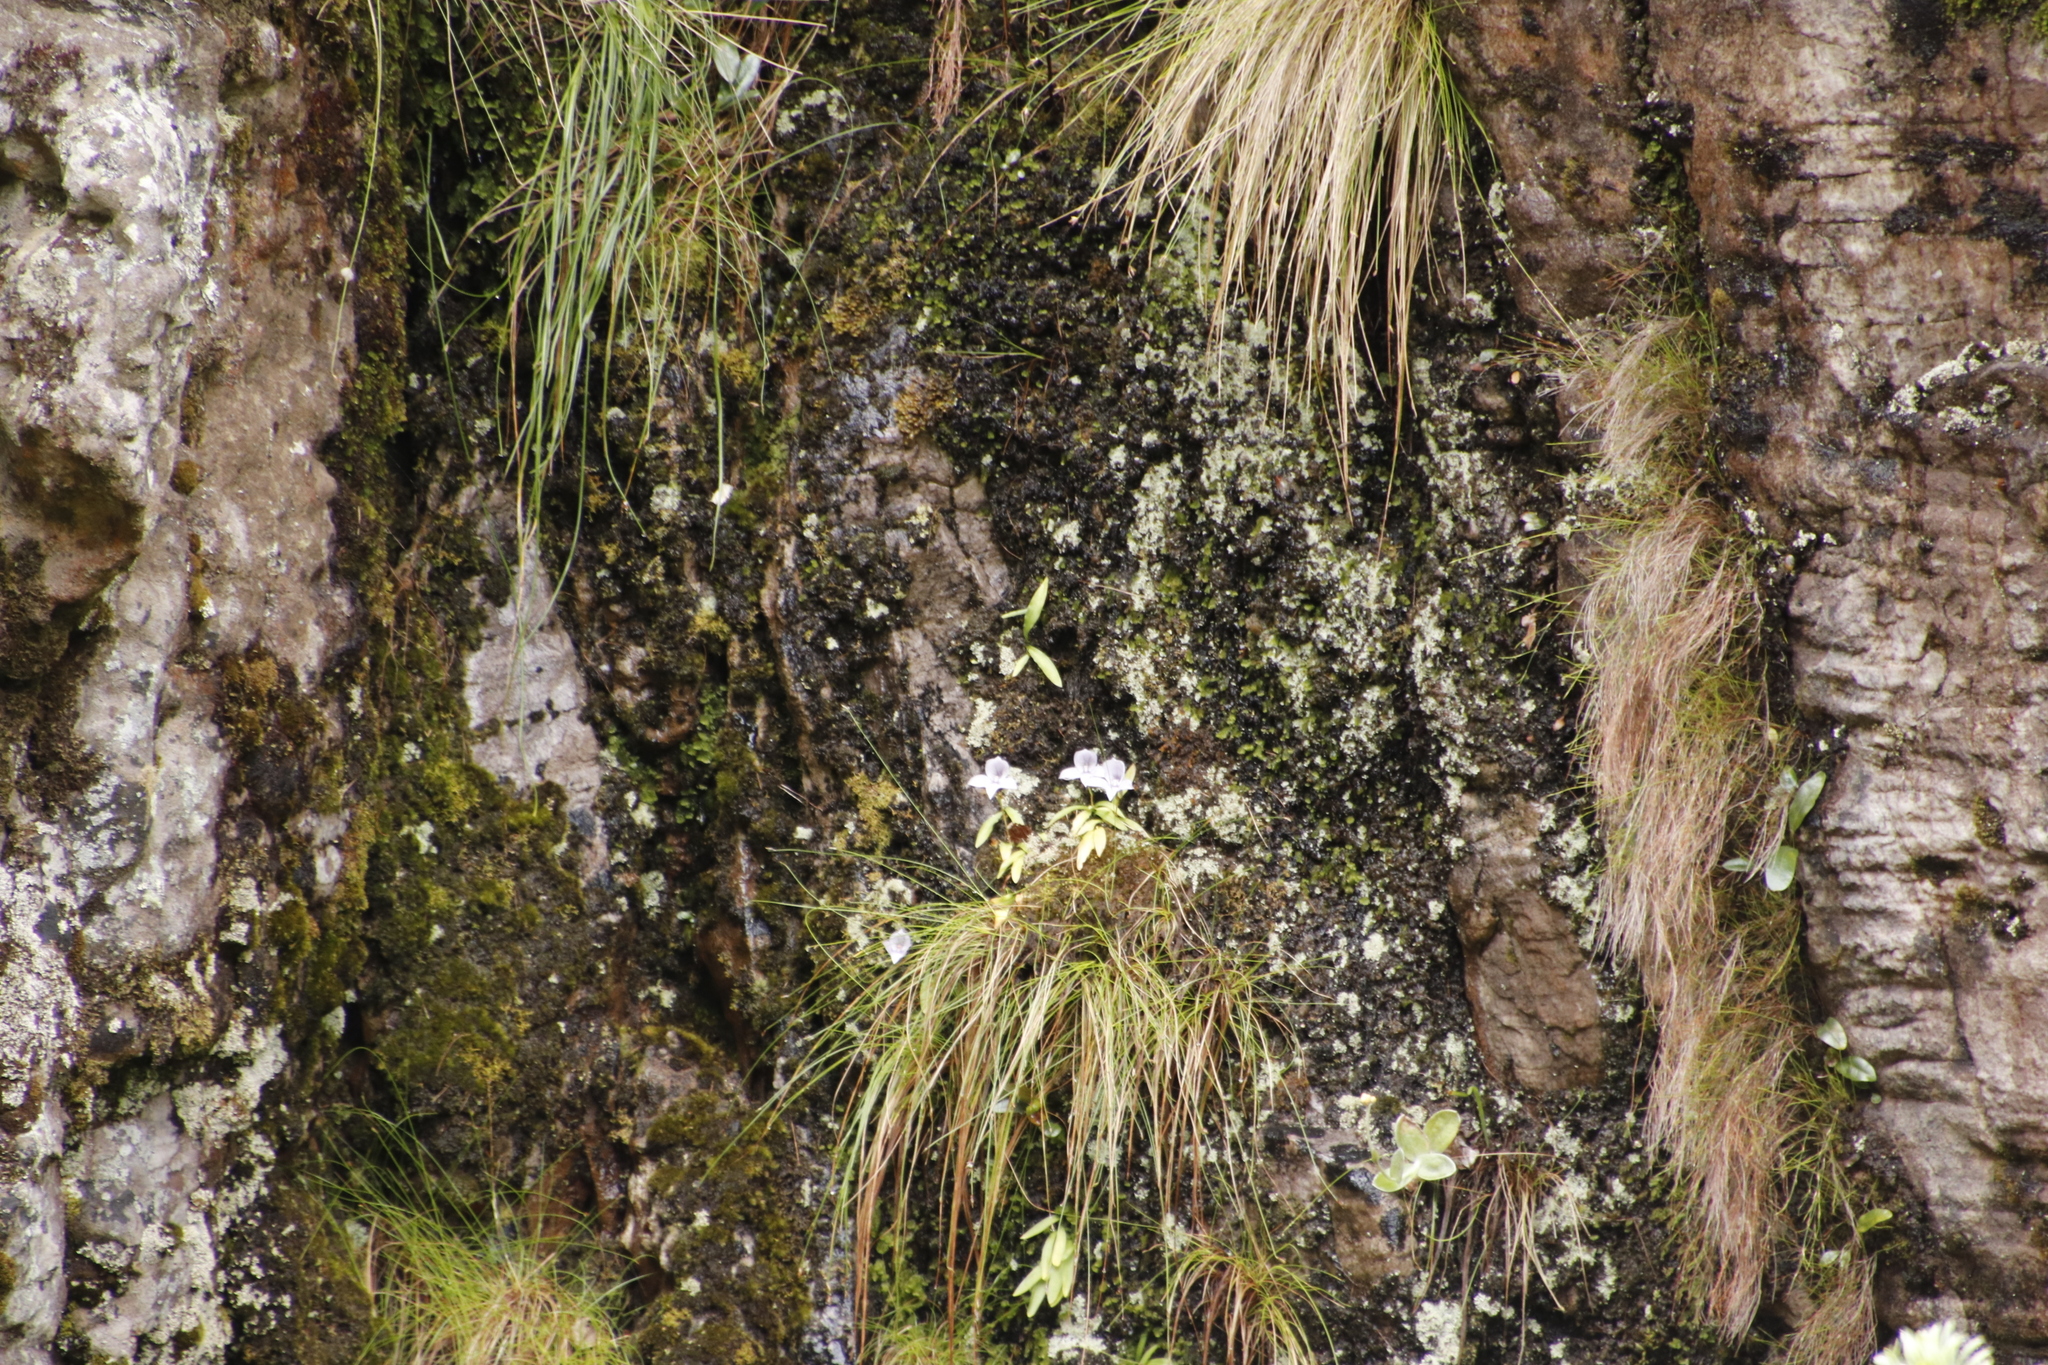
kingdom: Plantae
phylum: Tracheophyta
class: Liliopsida
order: Asparagales
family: Orchidaceae
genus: Disa
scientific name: Disa longicornu
